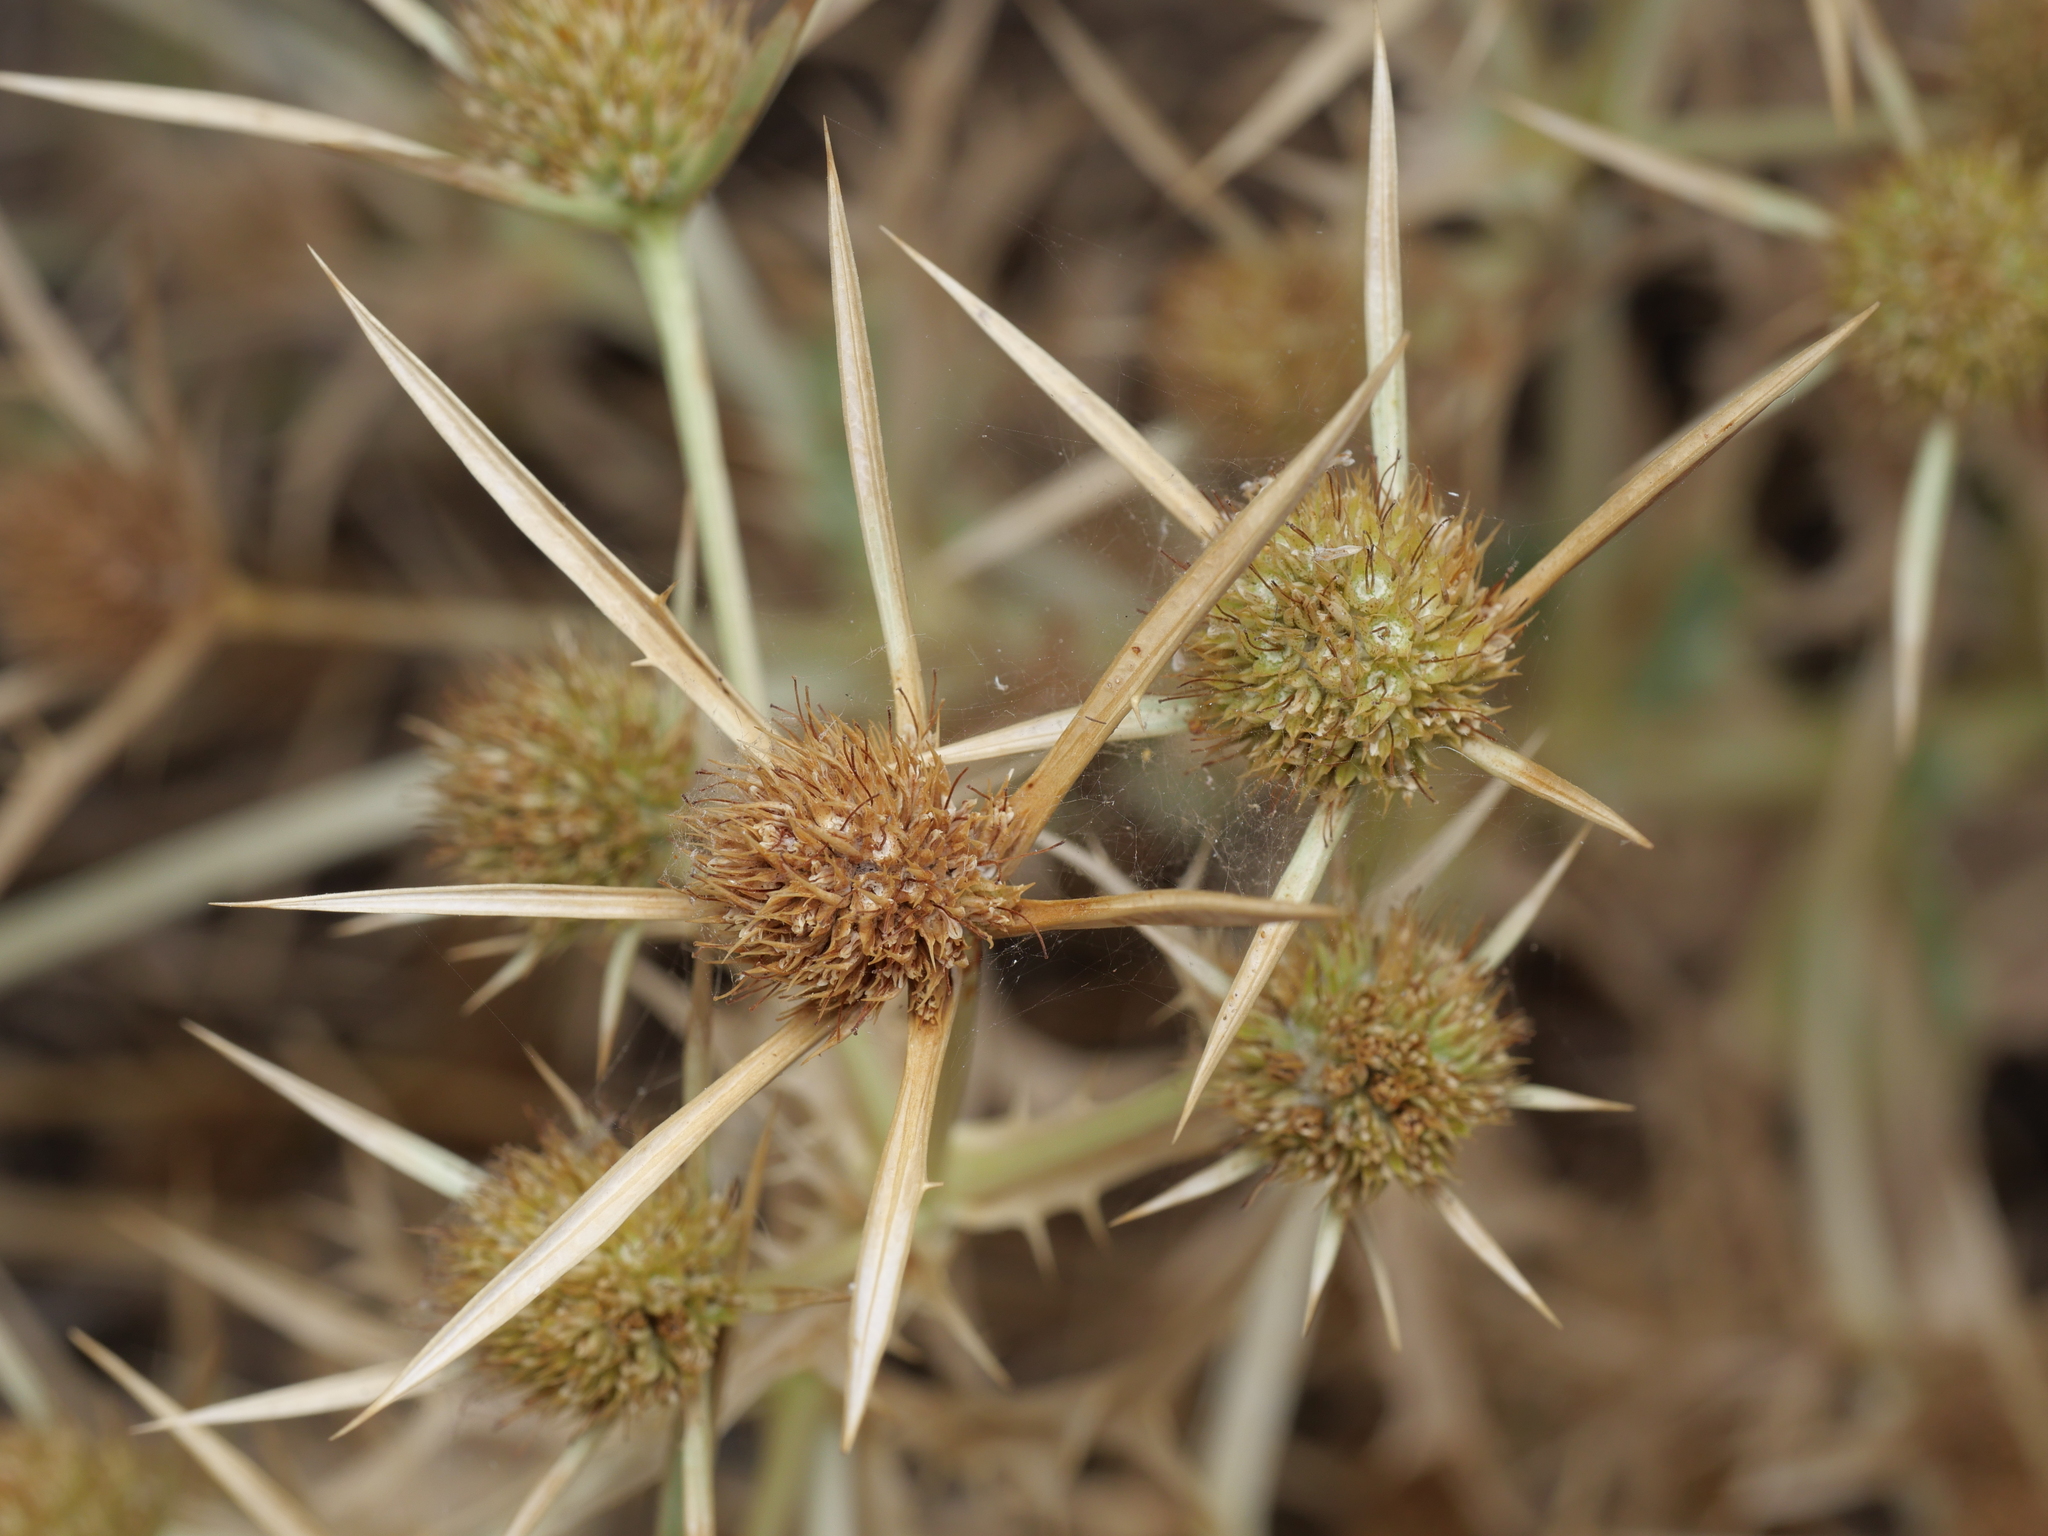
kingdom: Plantae
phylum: Tracheophyta
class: Magnoliopsida
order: Apiales
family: Apiaceae
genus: Eryngium
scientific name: Eryngium campestre
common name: Field eryngo
